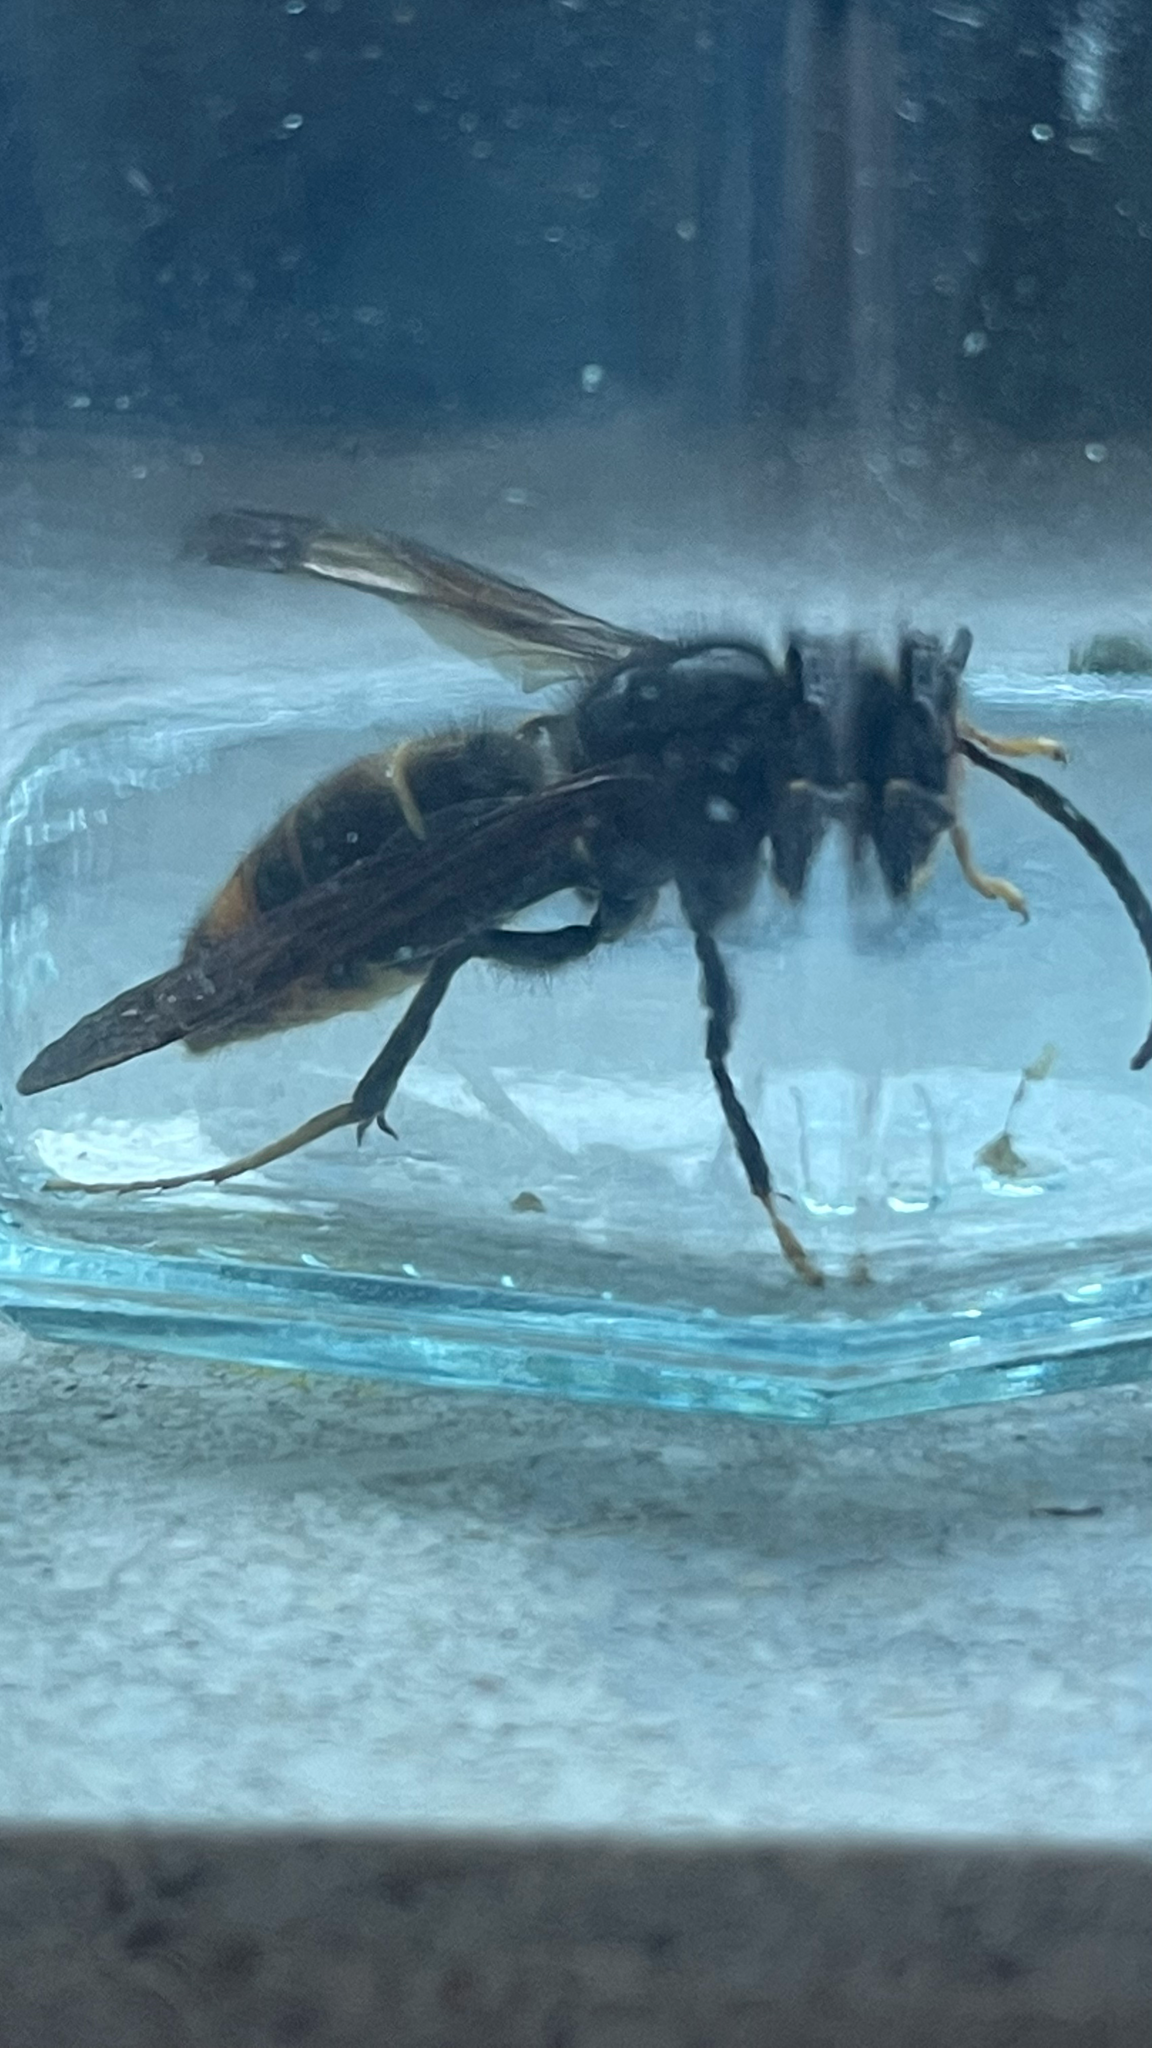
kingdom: Animalia
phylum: Arthropoda
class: Insecta
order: Hymenoptera
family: Vespidae
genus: Vespa
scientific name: Vespa velutina
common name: Asian hornet
